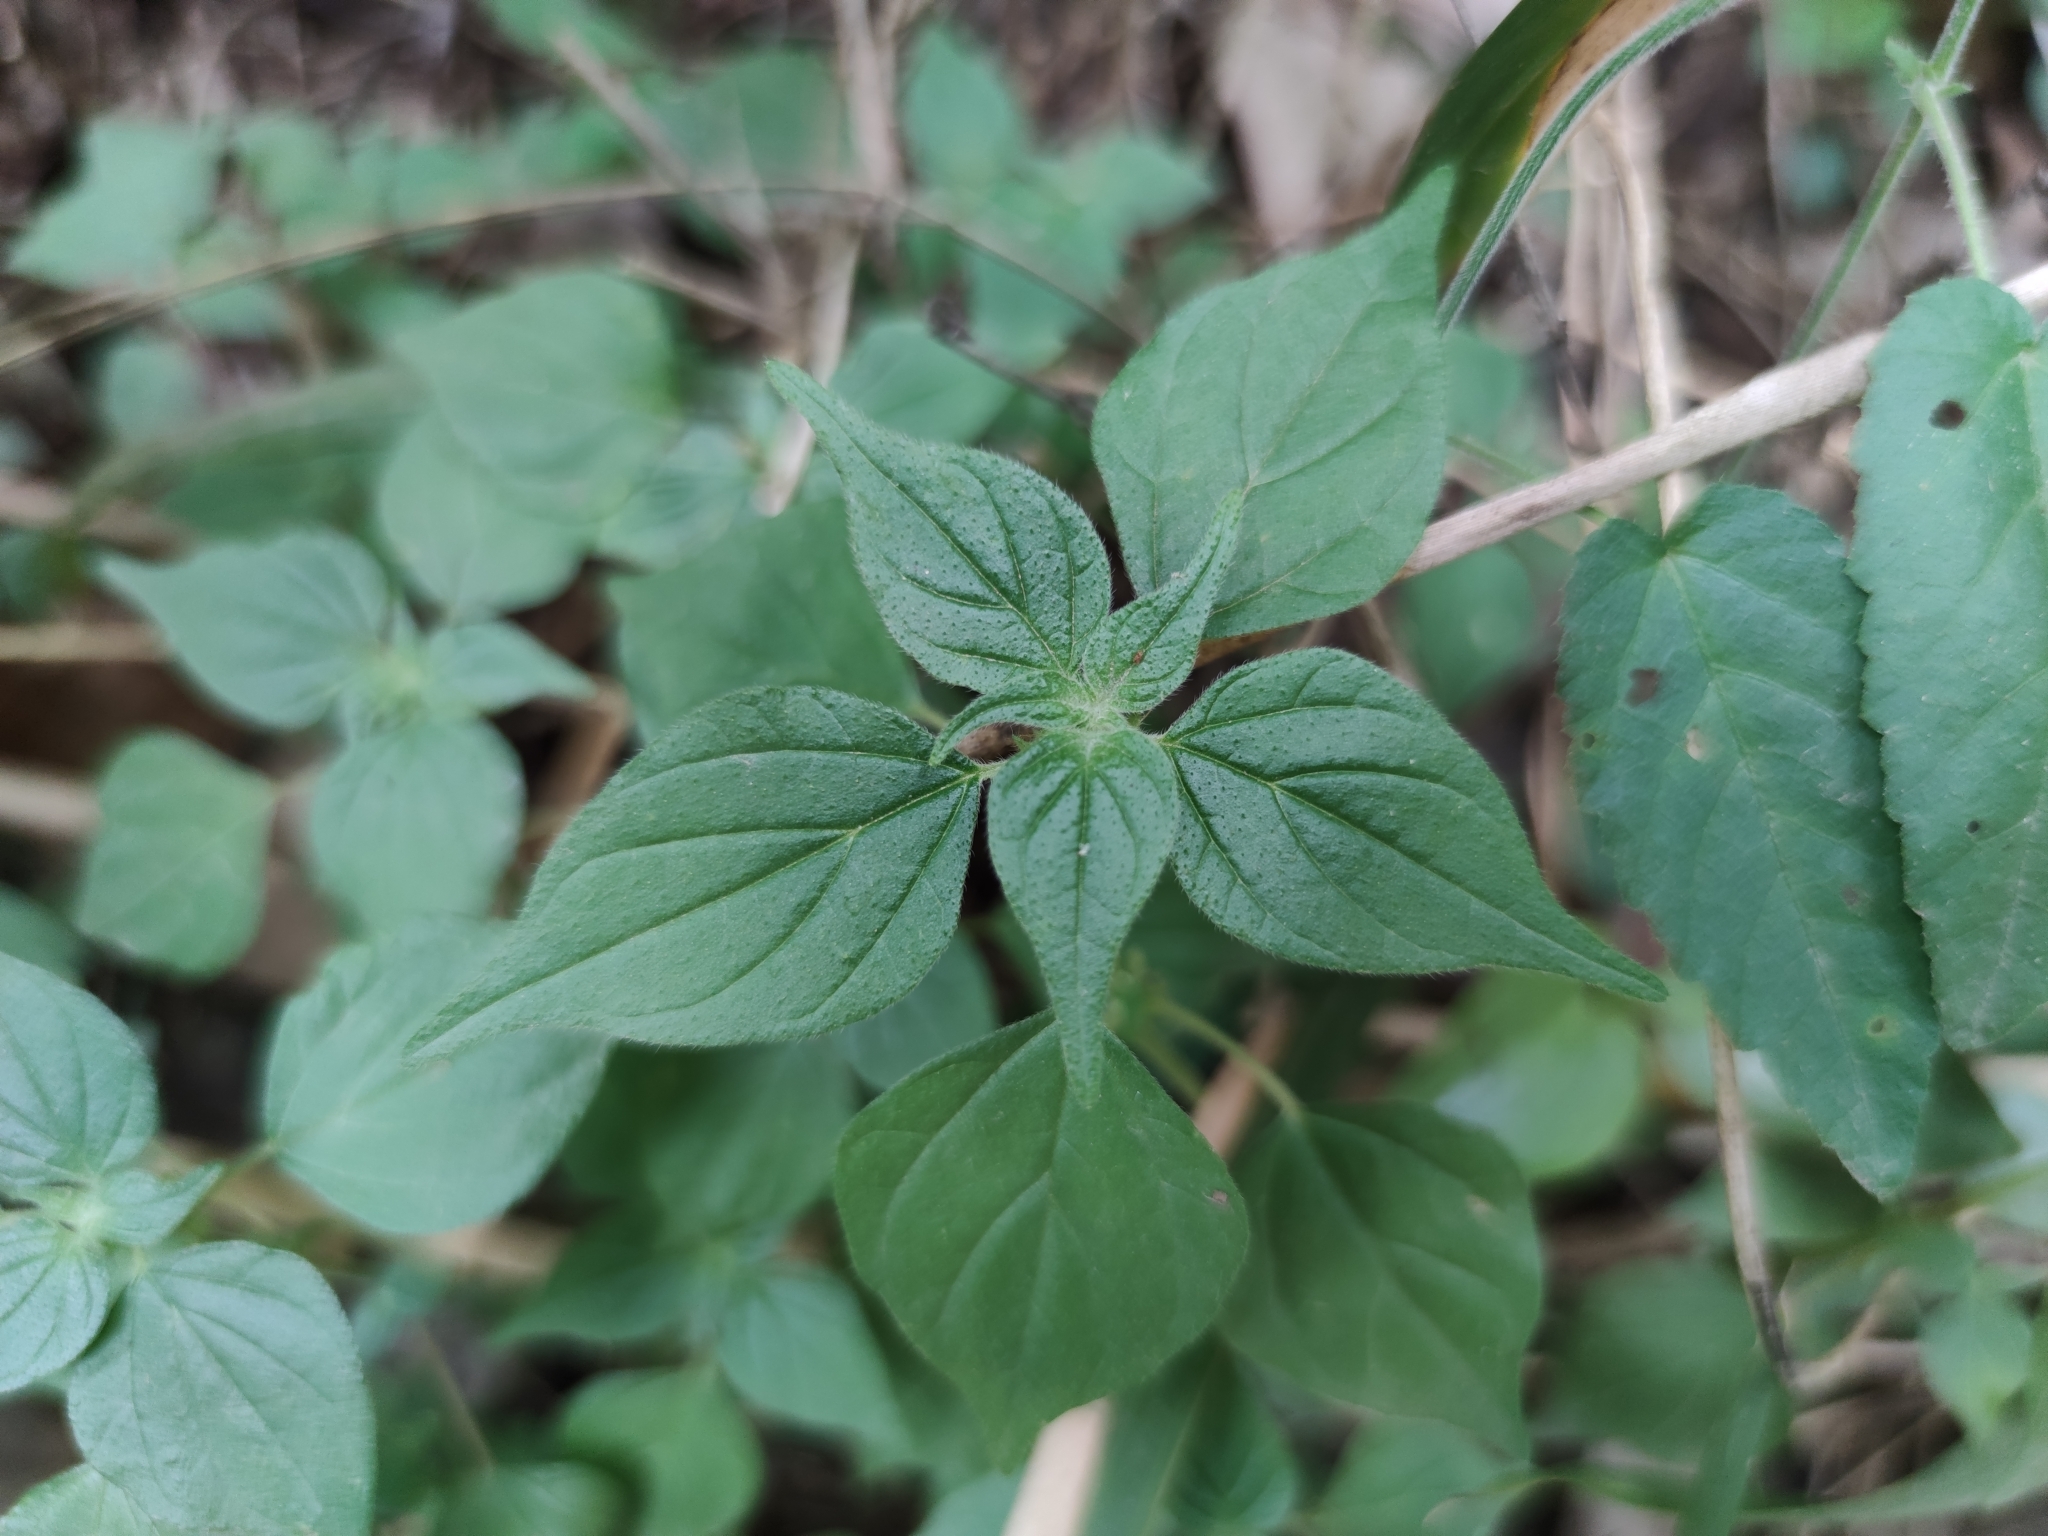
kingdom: Plantae
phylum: Tracheophyta
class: Magnoliopsida
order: Rosales
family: Urticaceae
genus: Parietaria
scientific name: Parietaria officinalis
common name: Eastern pellitory-of-the-wall
